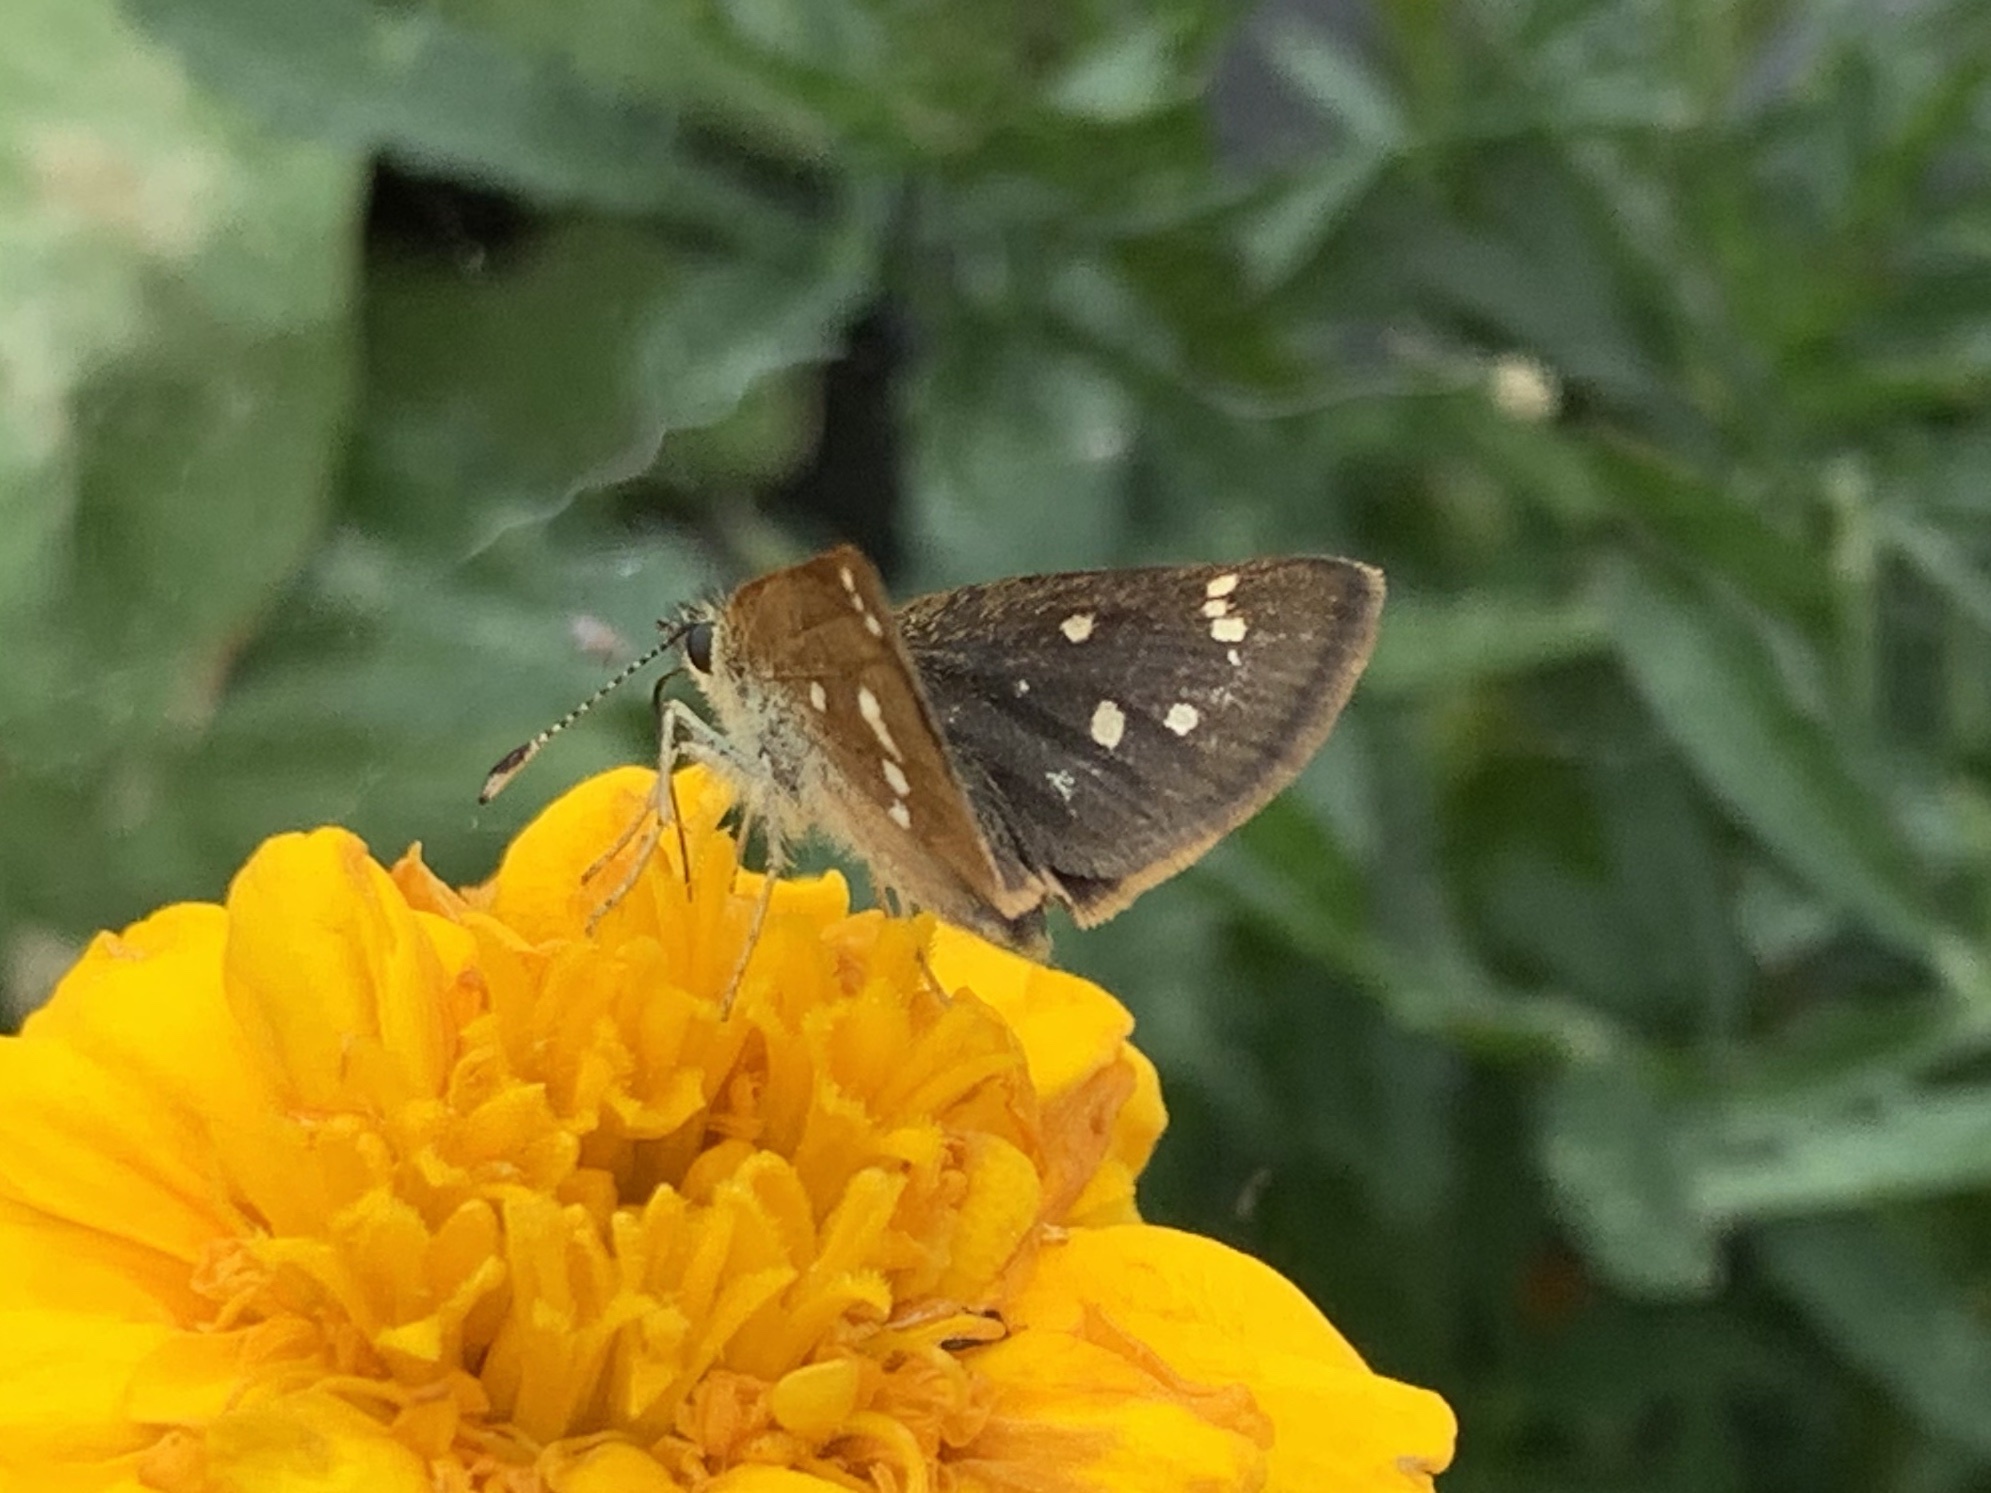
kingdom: Animalia
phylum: Arthropoda
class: Insecta
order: Lepidoptera
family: Hesperiidae
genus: Piruna
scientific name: Piruna polingii
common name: Four-spotted skipperling
